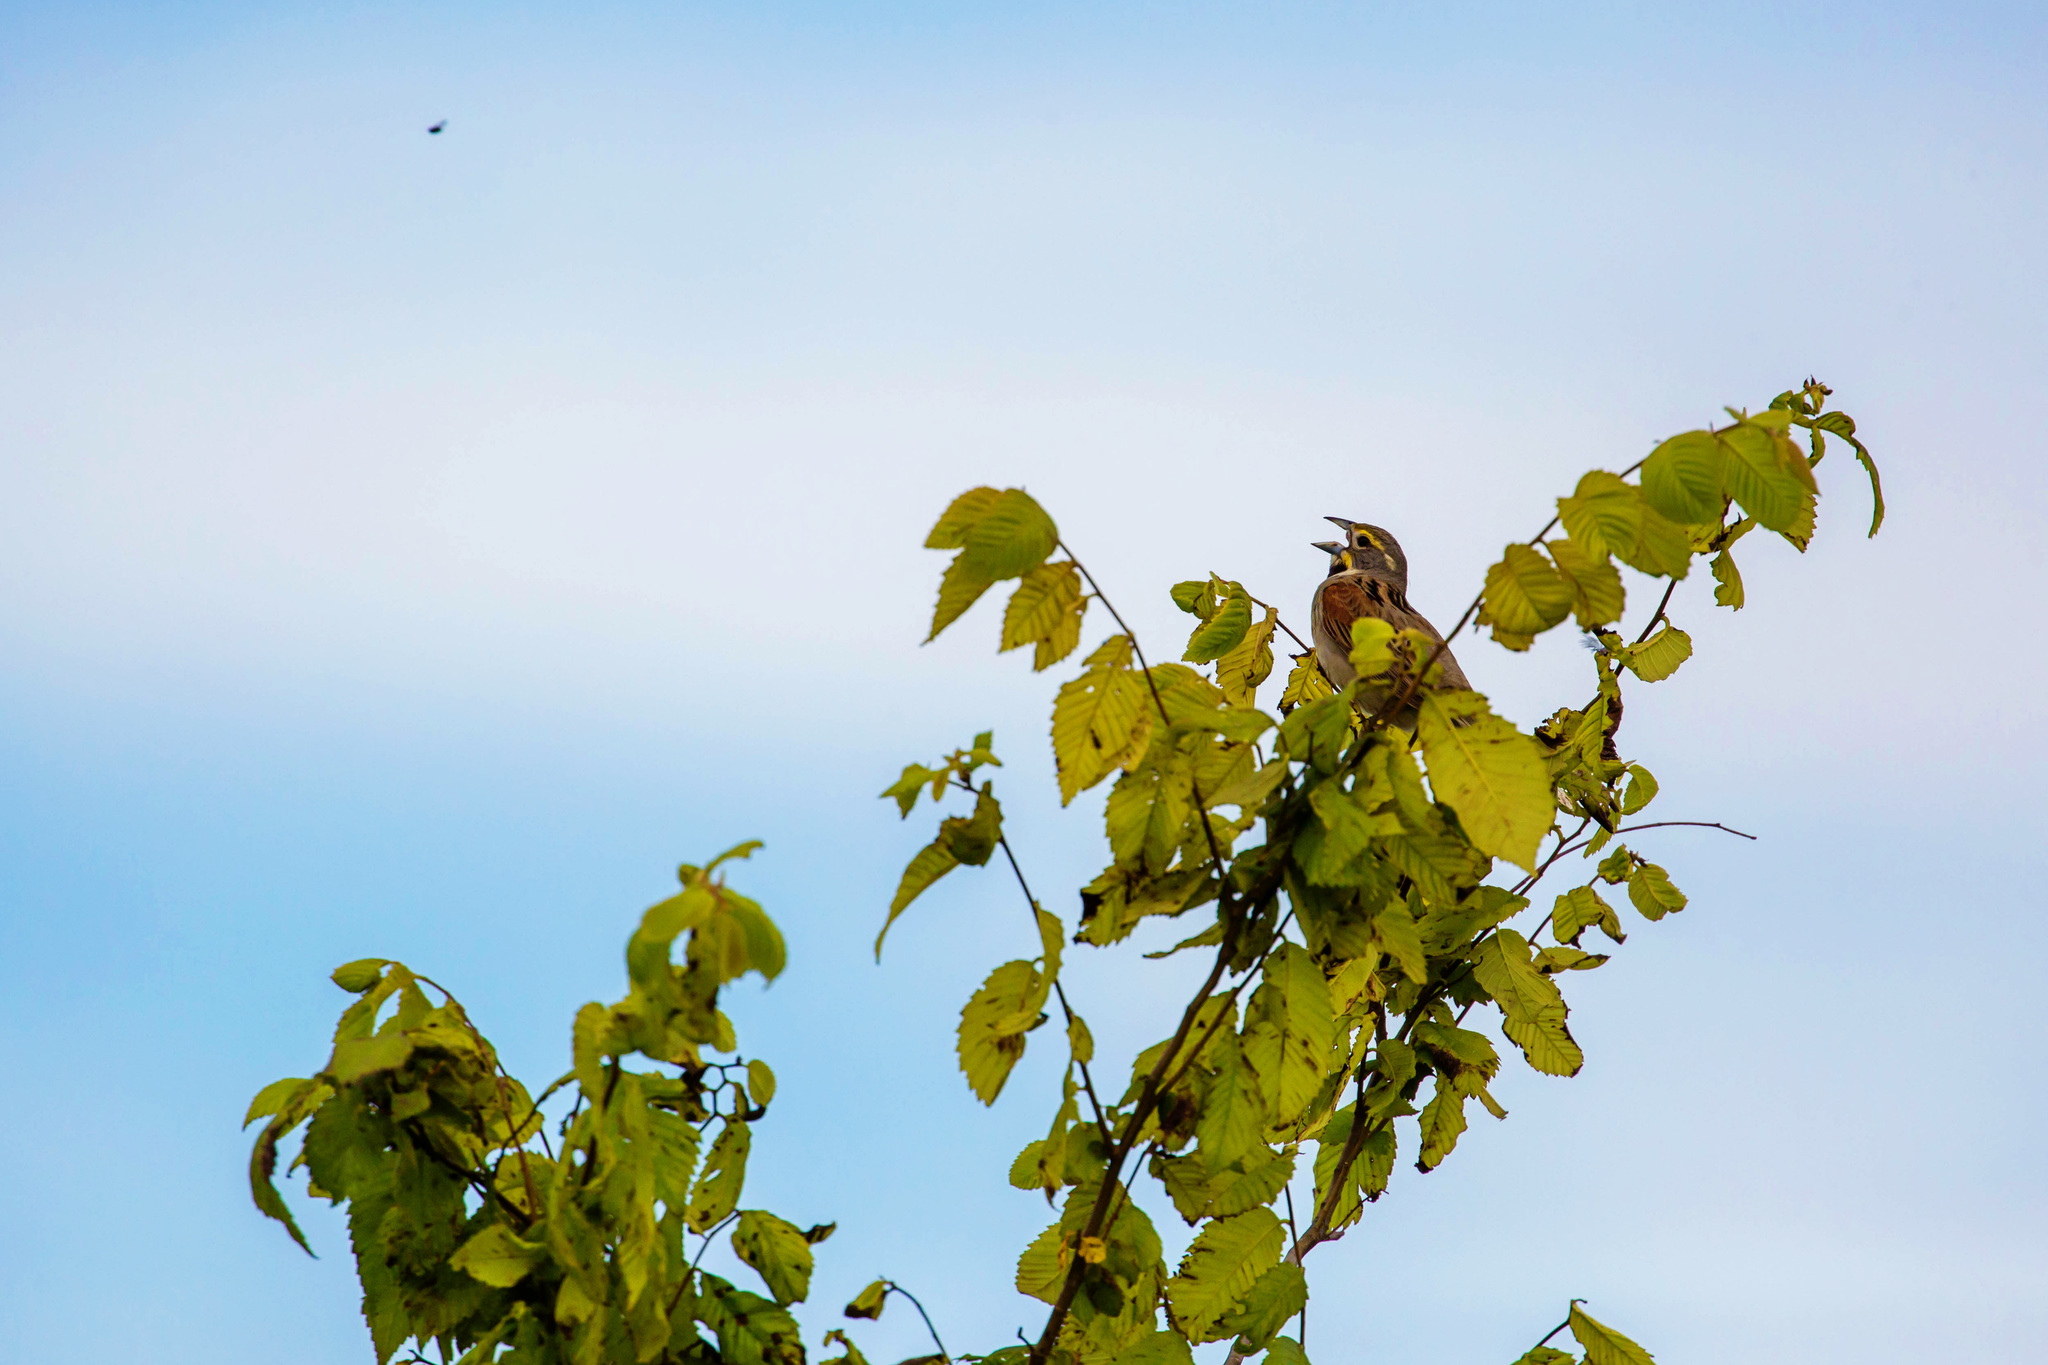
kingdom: Animalia
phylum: Chordata
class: Aves
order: Passeriformes
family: Cardinalidae
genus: Spiza
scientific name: Spiza americana
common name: Dickcissel
